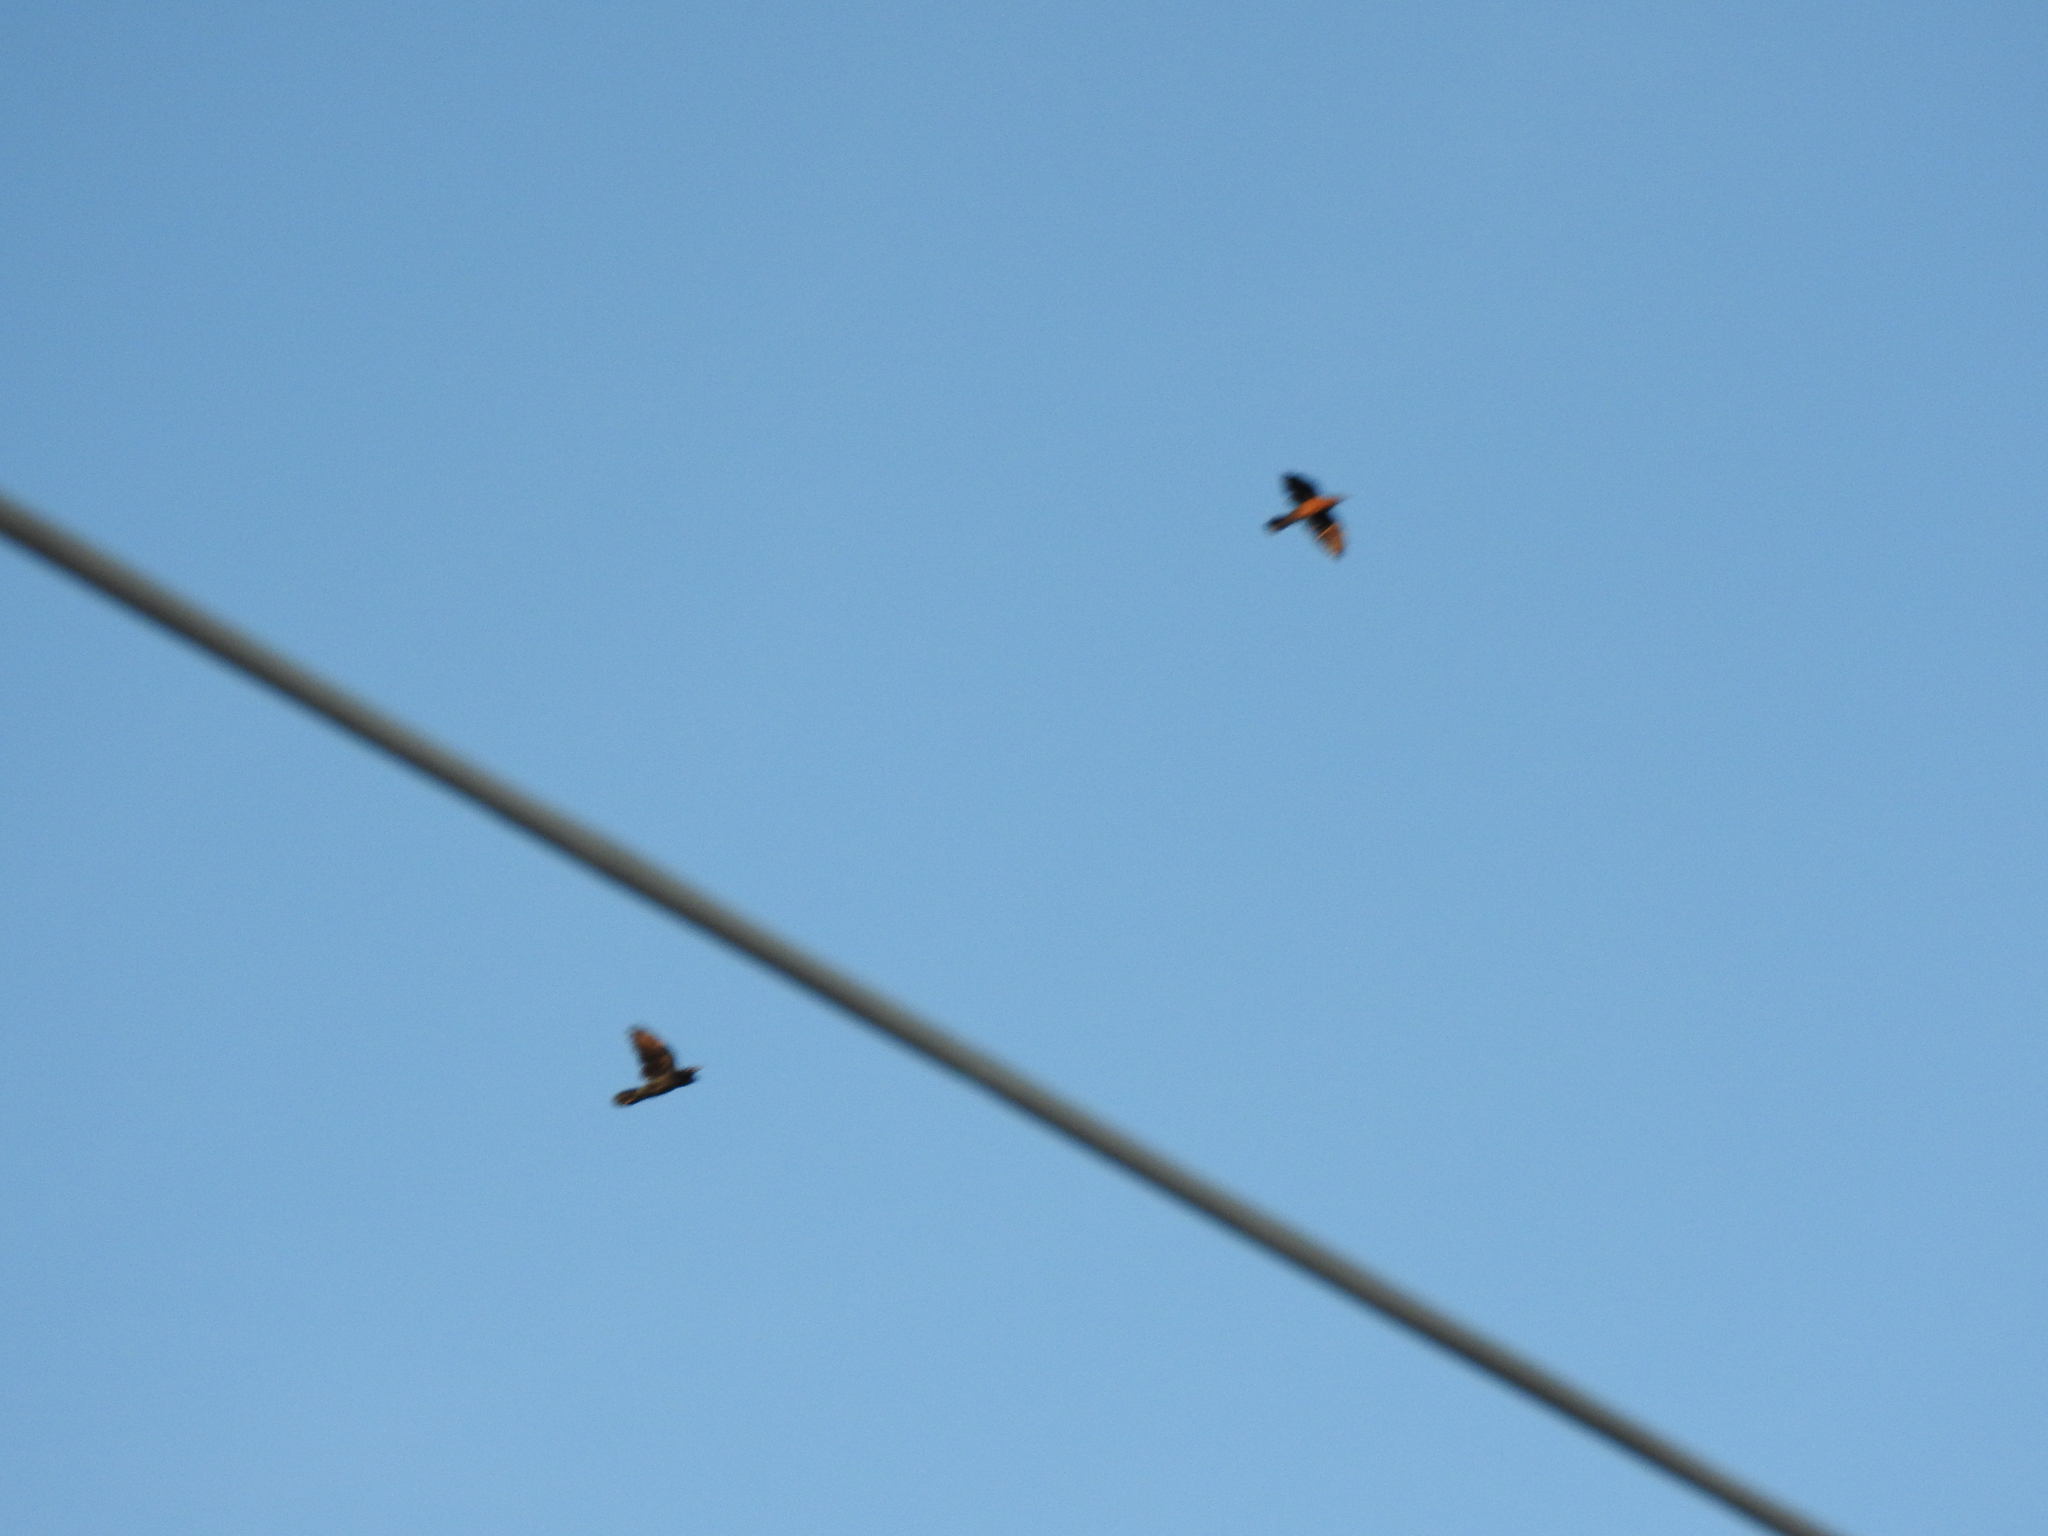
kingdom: Animalia
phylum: Chordata
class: Aves
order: Passeriformes
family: Icteridae
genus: Quiscalus
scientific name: Quiscalus mexicanus
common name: Great-tailed grackle
